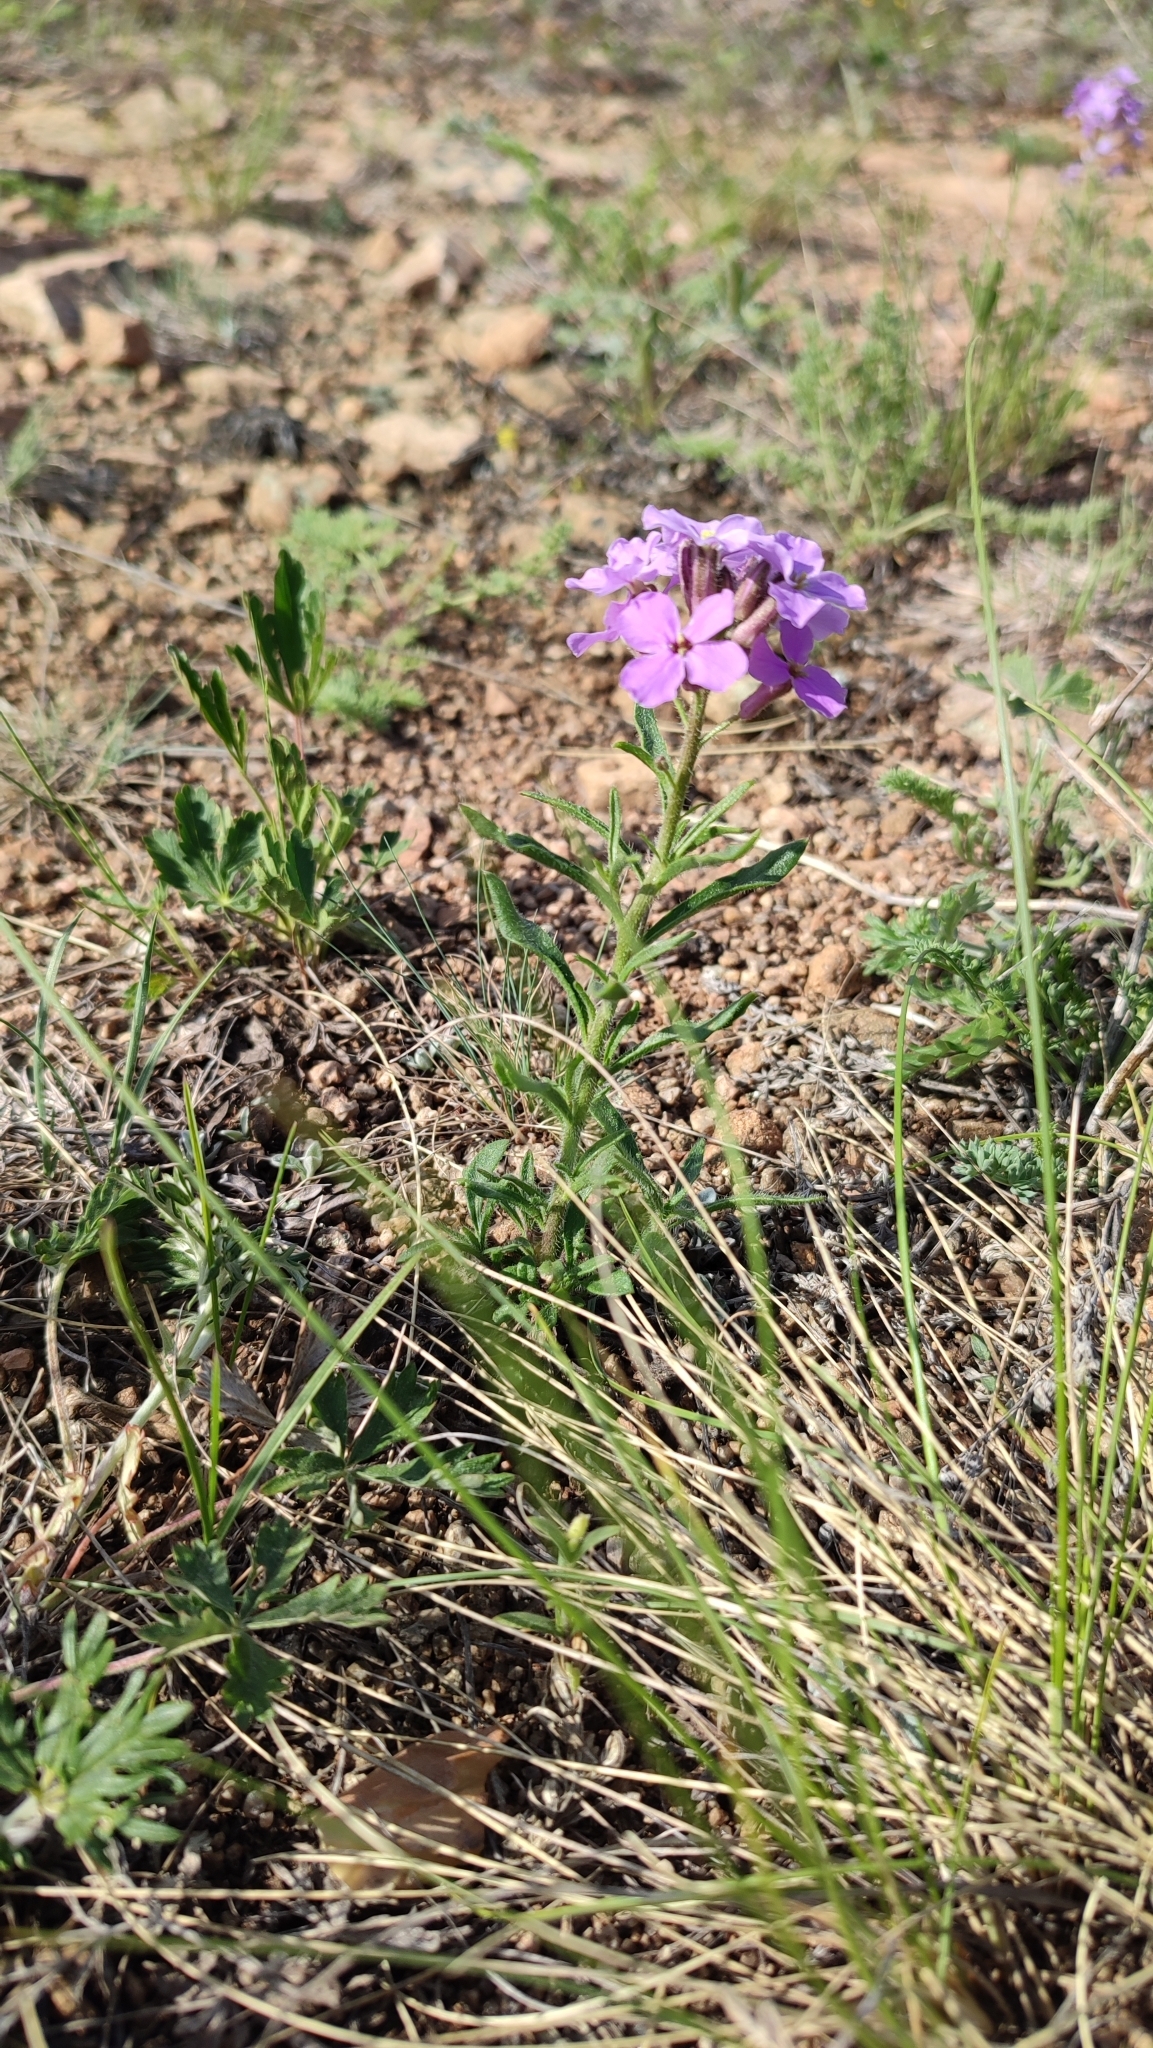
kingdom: Plantae
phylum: Tracheophyta
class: Magnoliopsida
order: Brassicales
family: Brassicaceae
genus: Clausia
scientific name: Clausia aprica
